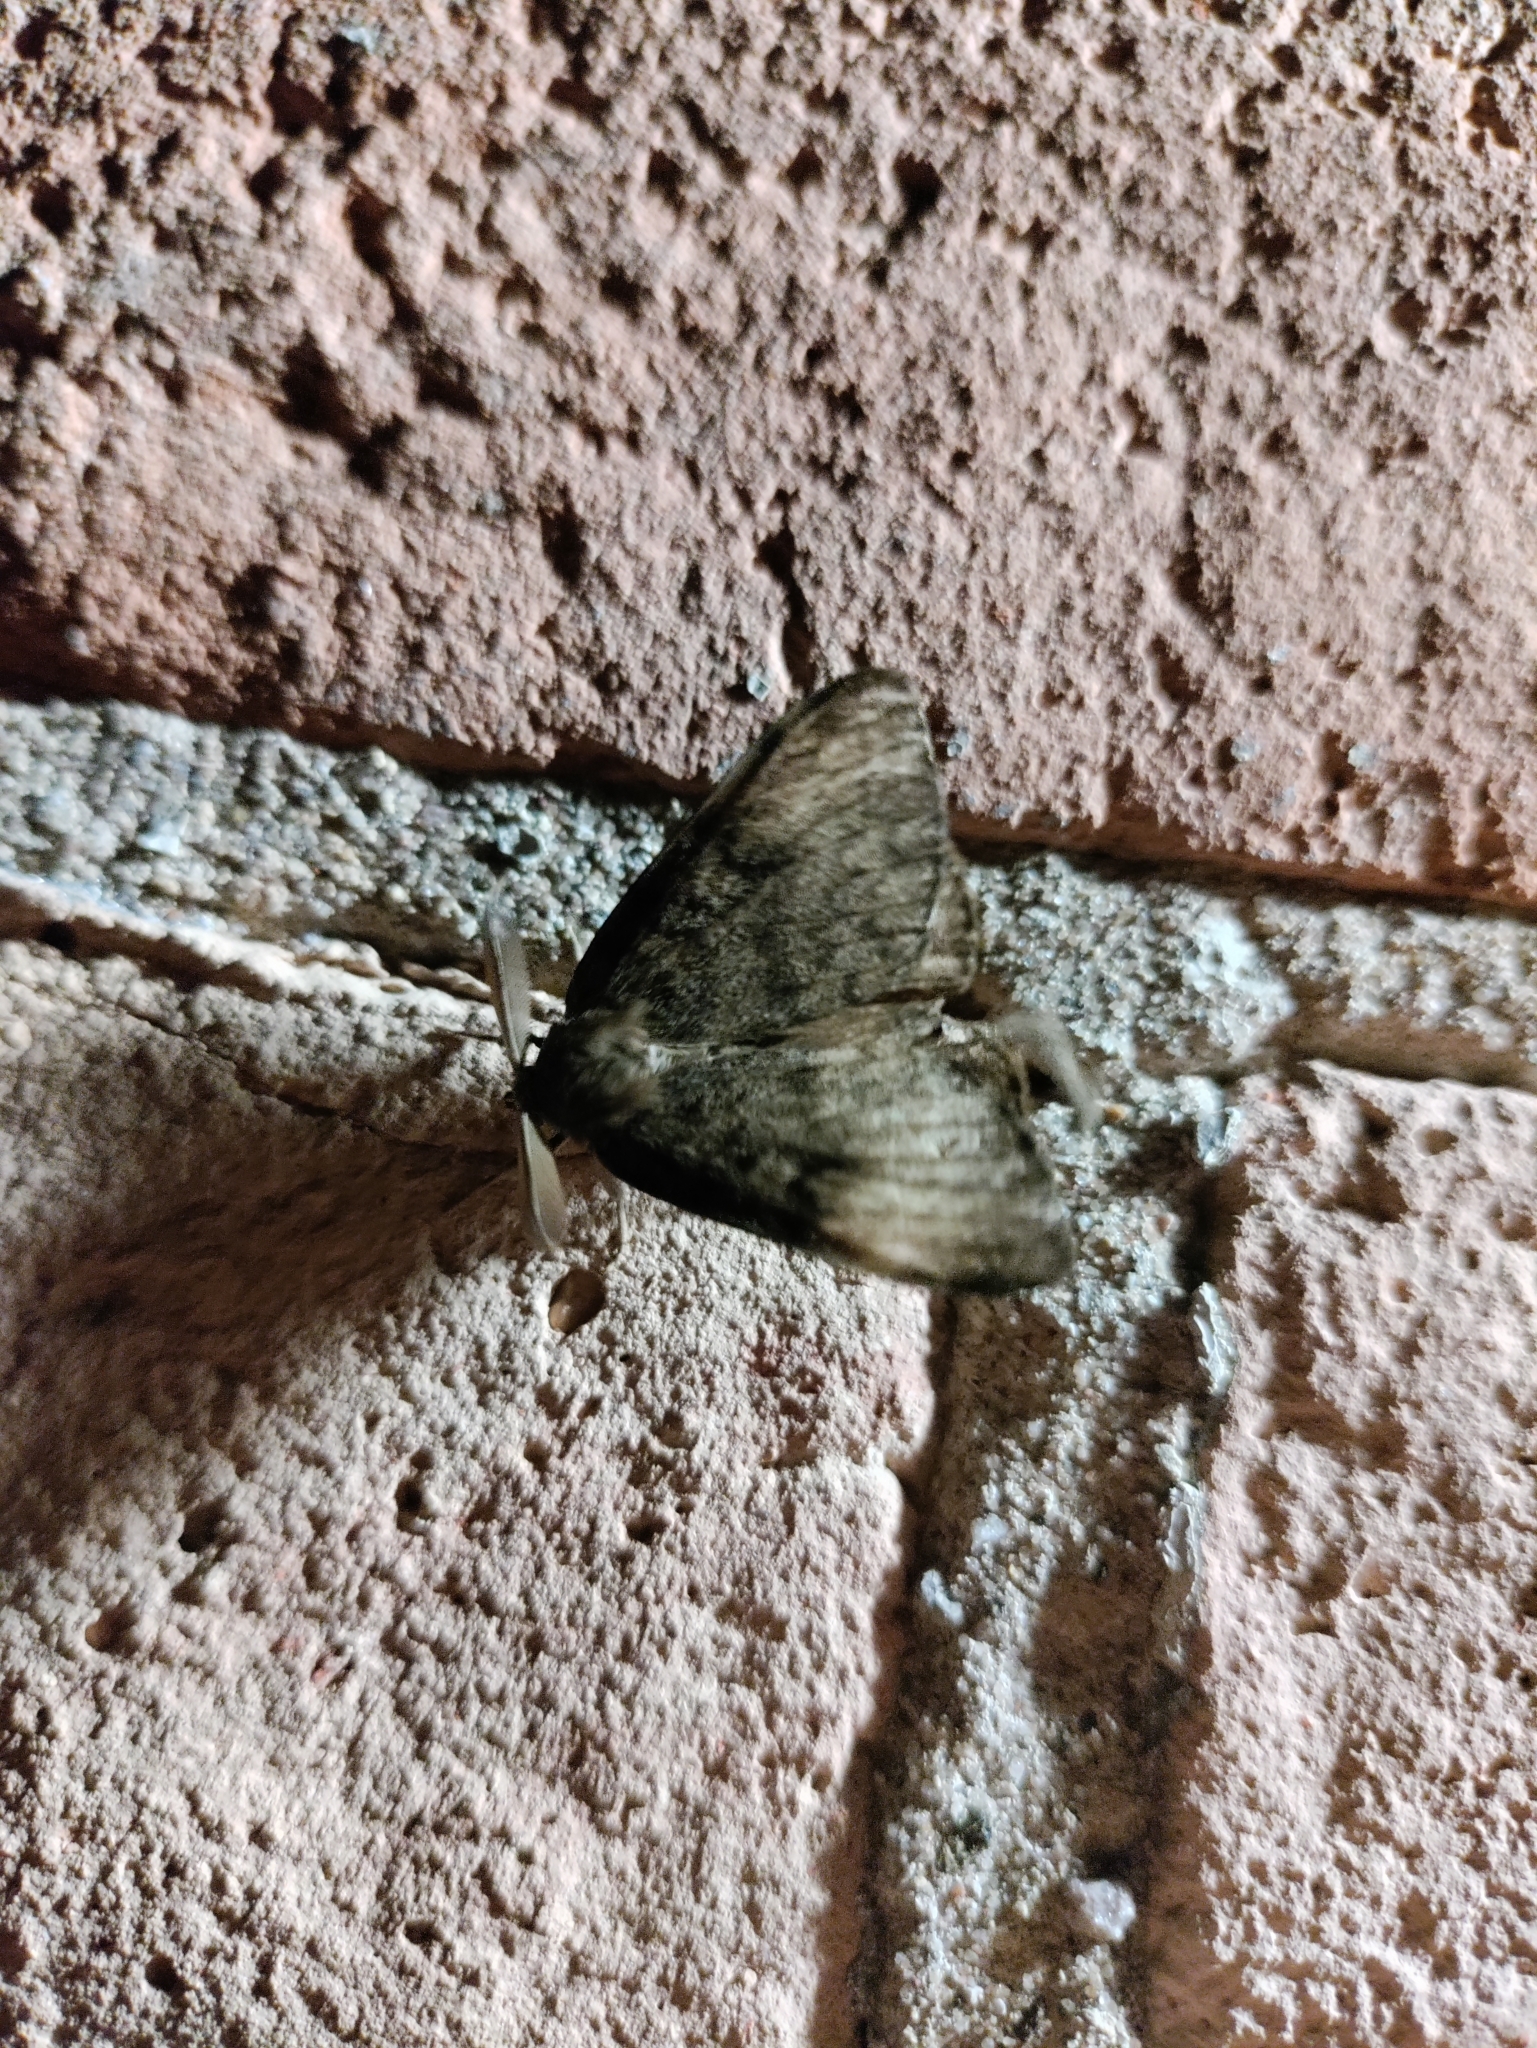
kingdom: Animalia
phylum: Arthropoda
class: Insecta
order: Lepidoptera
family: Erebidae
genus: Lymantria
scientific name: Lymantria dispar
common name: Gypsy moth
